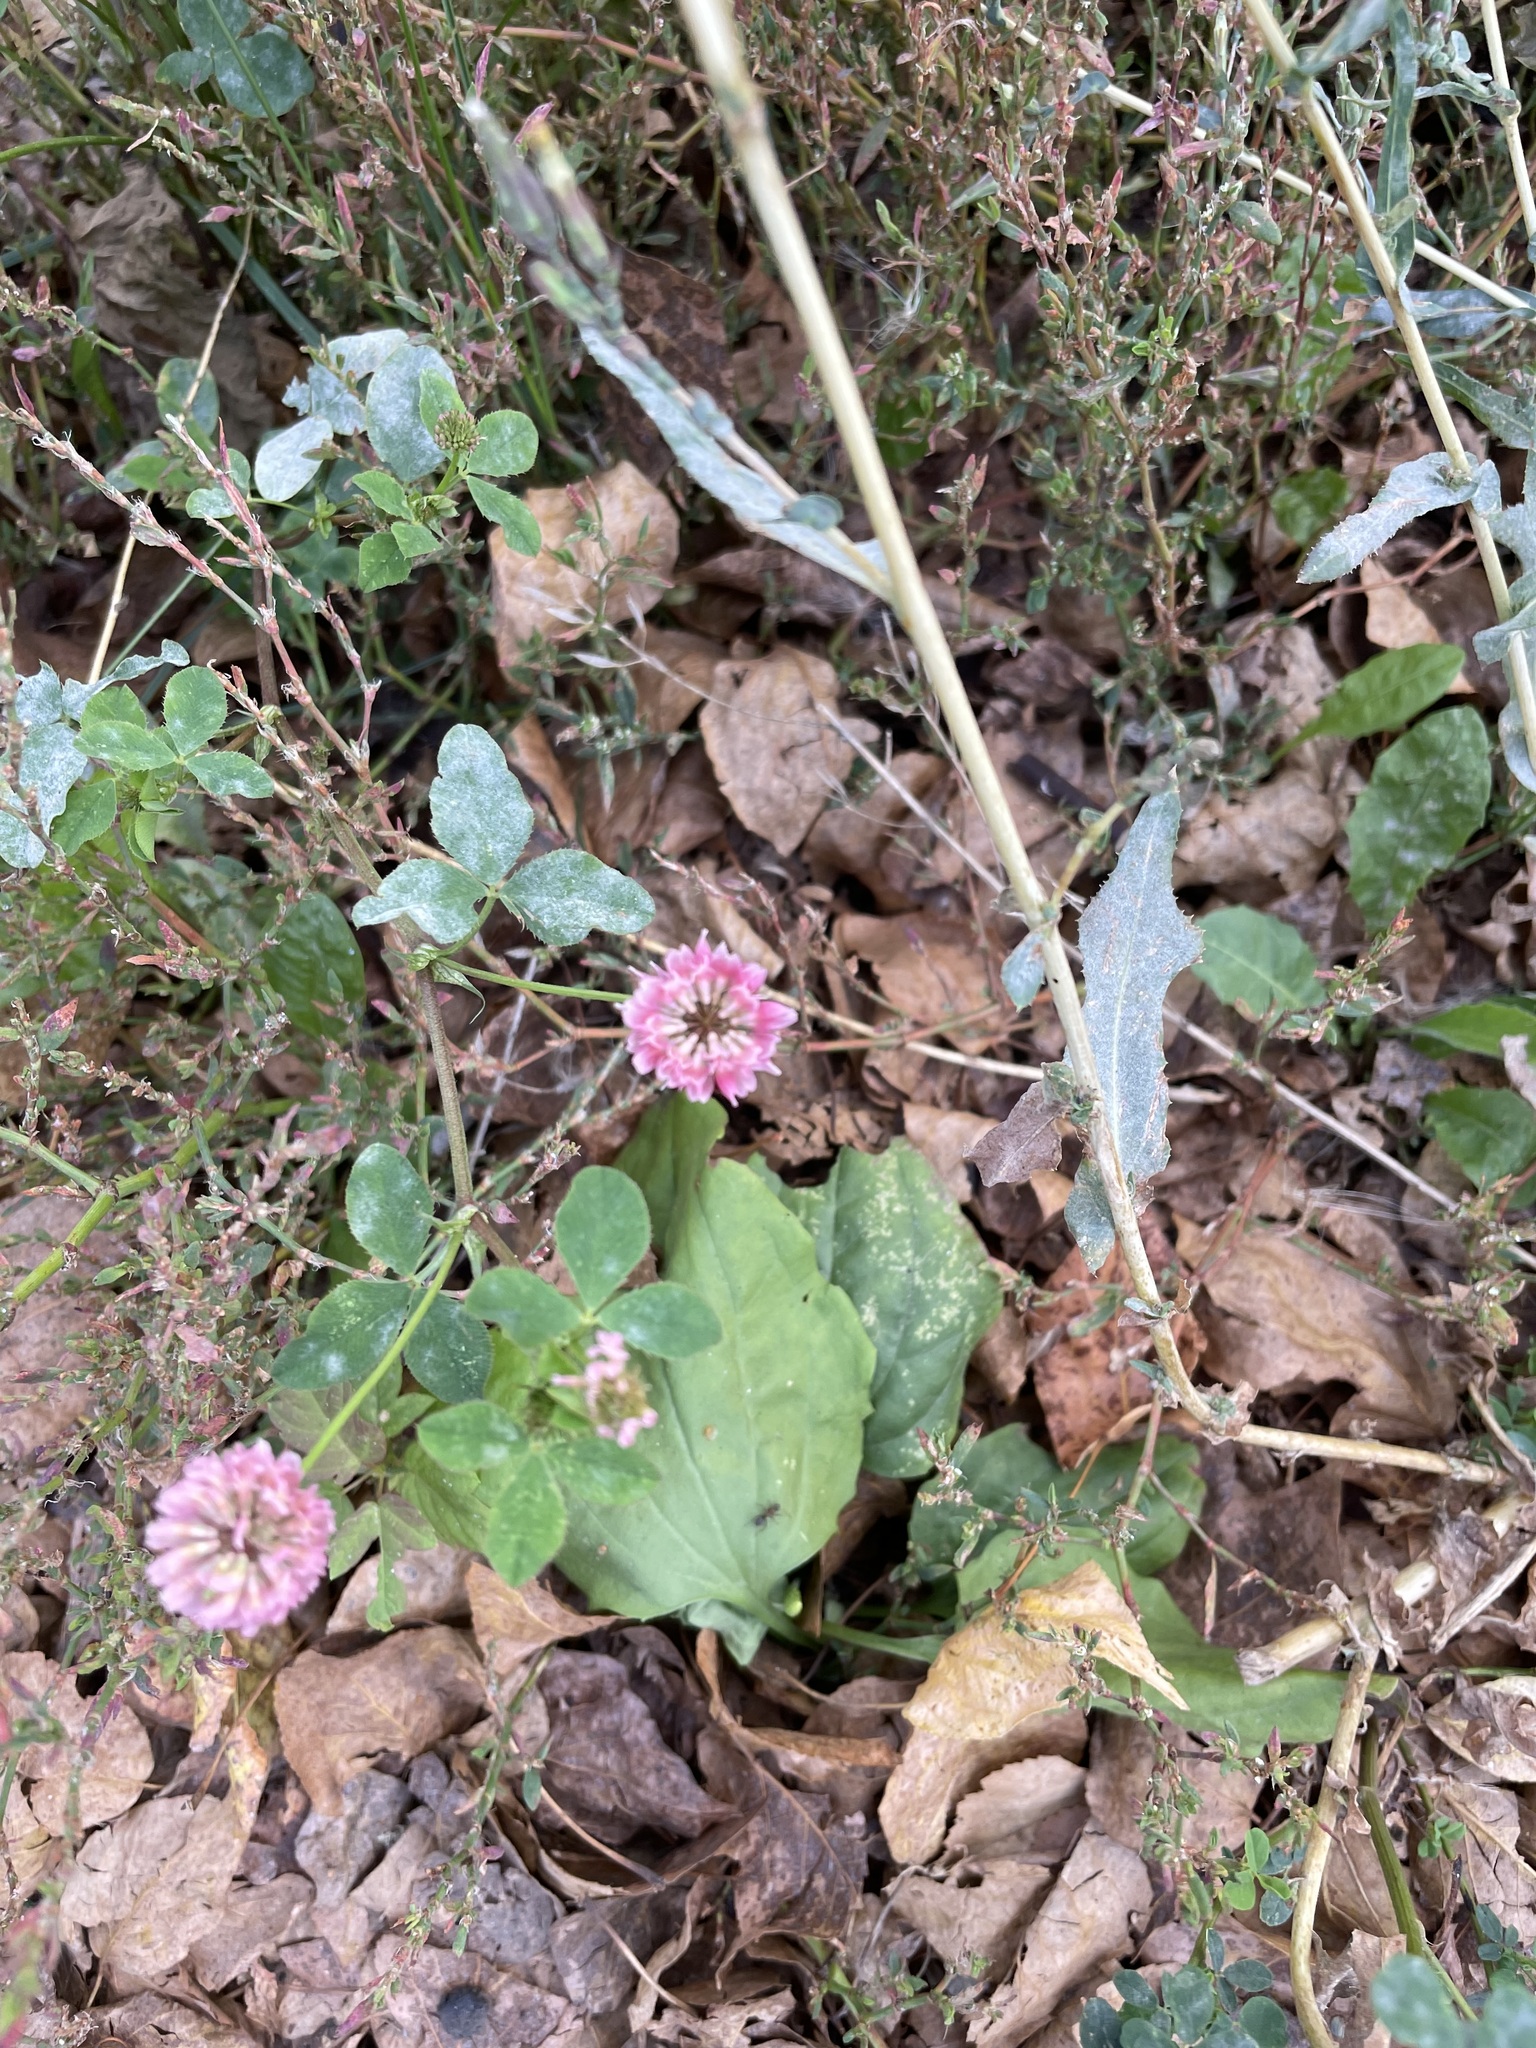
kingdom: Plantae
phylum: Tracheophyta
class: Magnoliopsida
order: Fabales
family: Fabaceae
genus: Trifolium
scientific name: Trifolium hybridum
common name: Alsike clover
